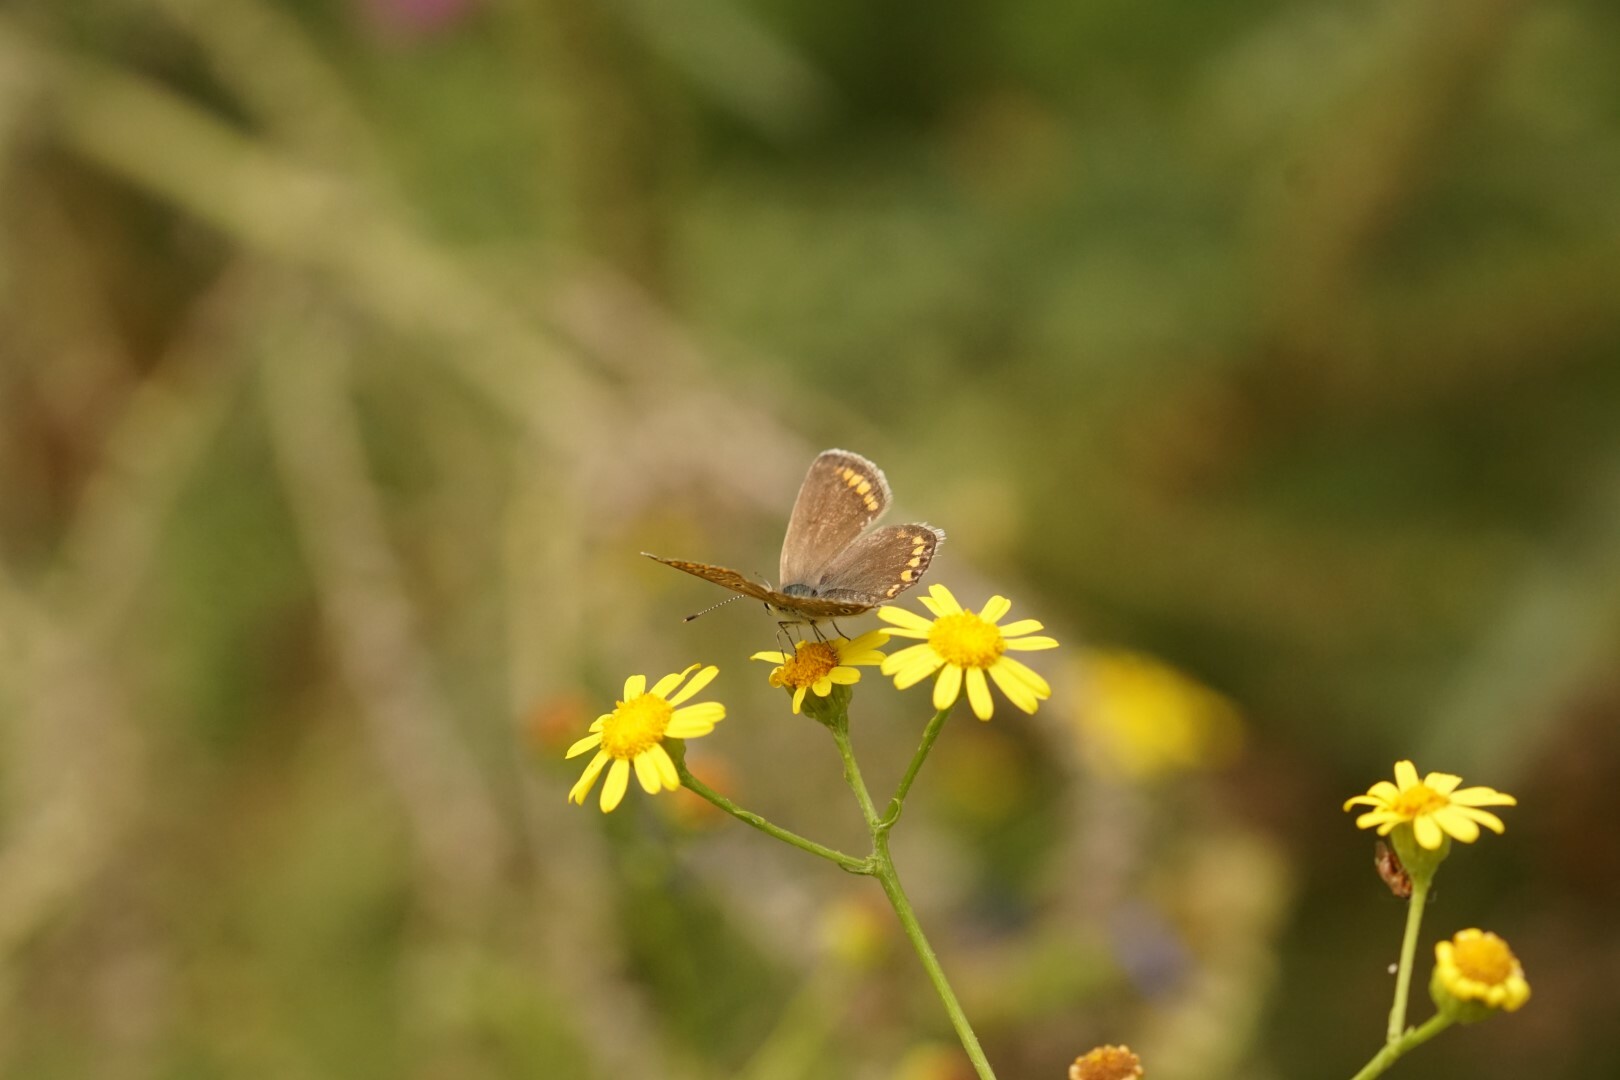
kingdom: Animalia
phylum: Arthropoda
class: Insecta
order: Lepidoptera
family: Lycaenidae
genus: Polyommatus
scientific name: Polyommatus icarus
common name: Common blue
